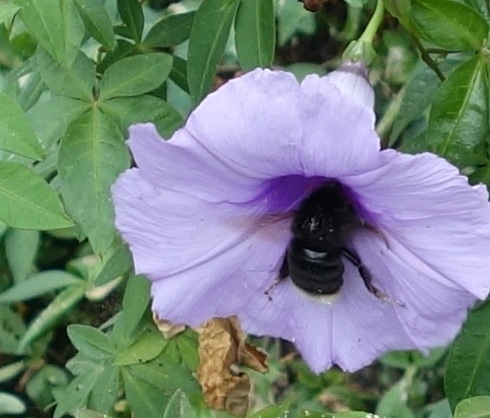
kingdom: Animalia
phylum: Arthropoda
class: Insecta
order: Hymenoptera
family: Apidae
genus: Bombus
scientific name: Bombus terrestris
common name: Buff-tailed bumblebee
